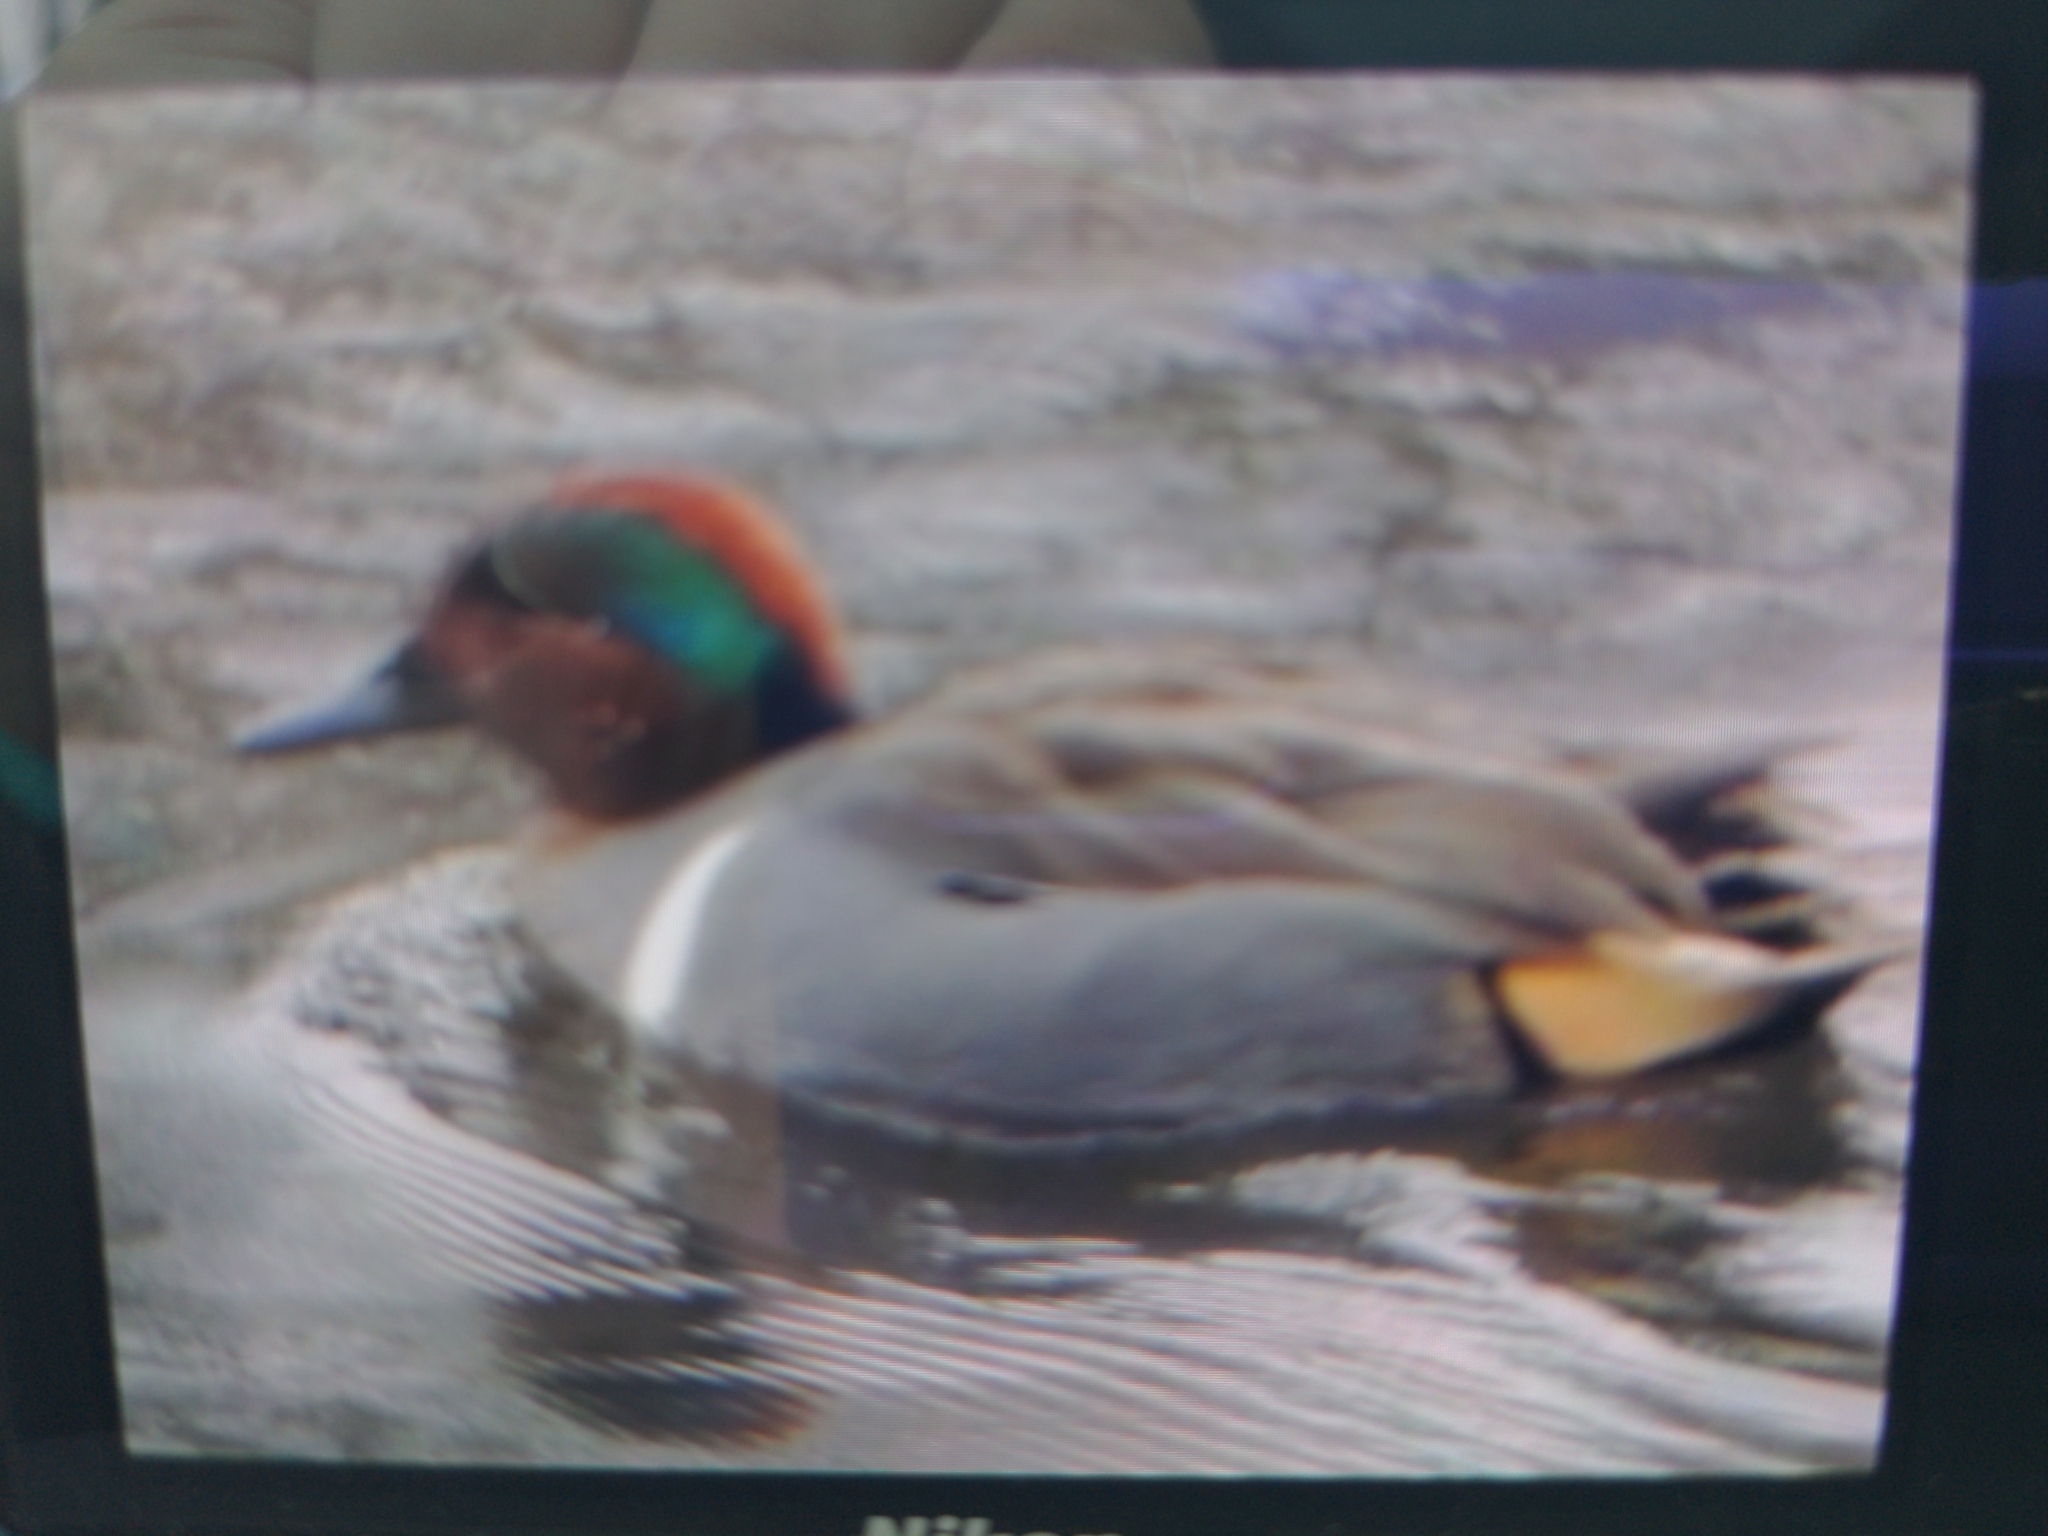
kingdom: Animalia
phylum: Chordata
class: Aves
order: Anseriformes
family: Anatidae
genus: Anas
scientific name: Anas crecca
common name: Eurasian teal
